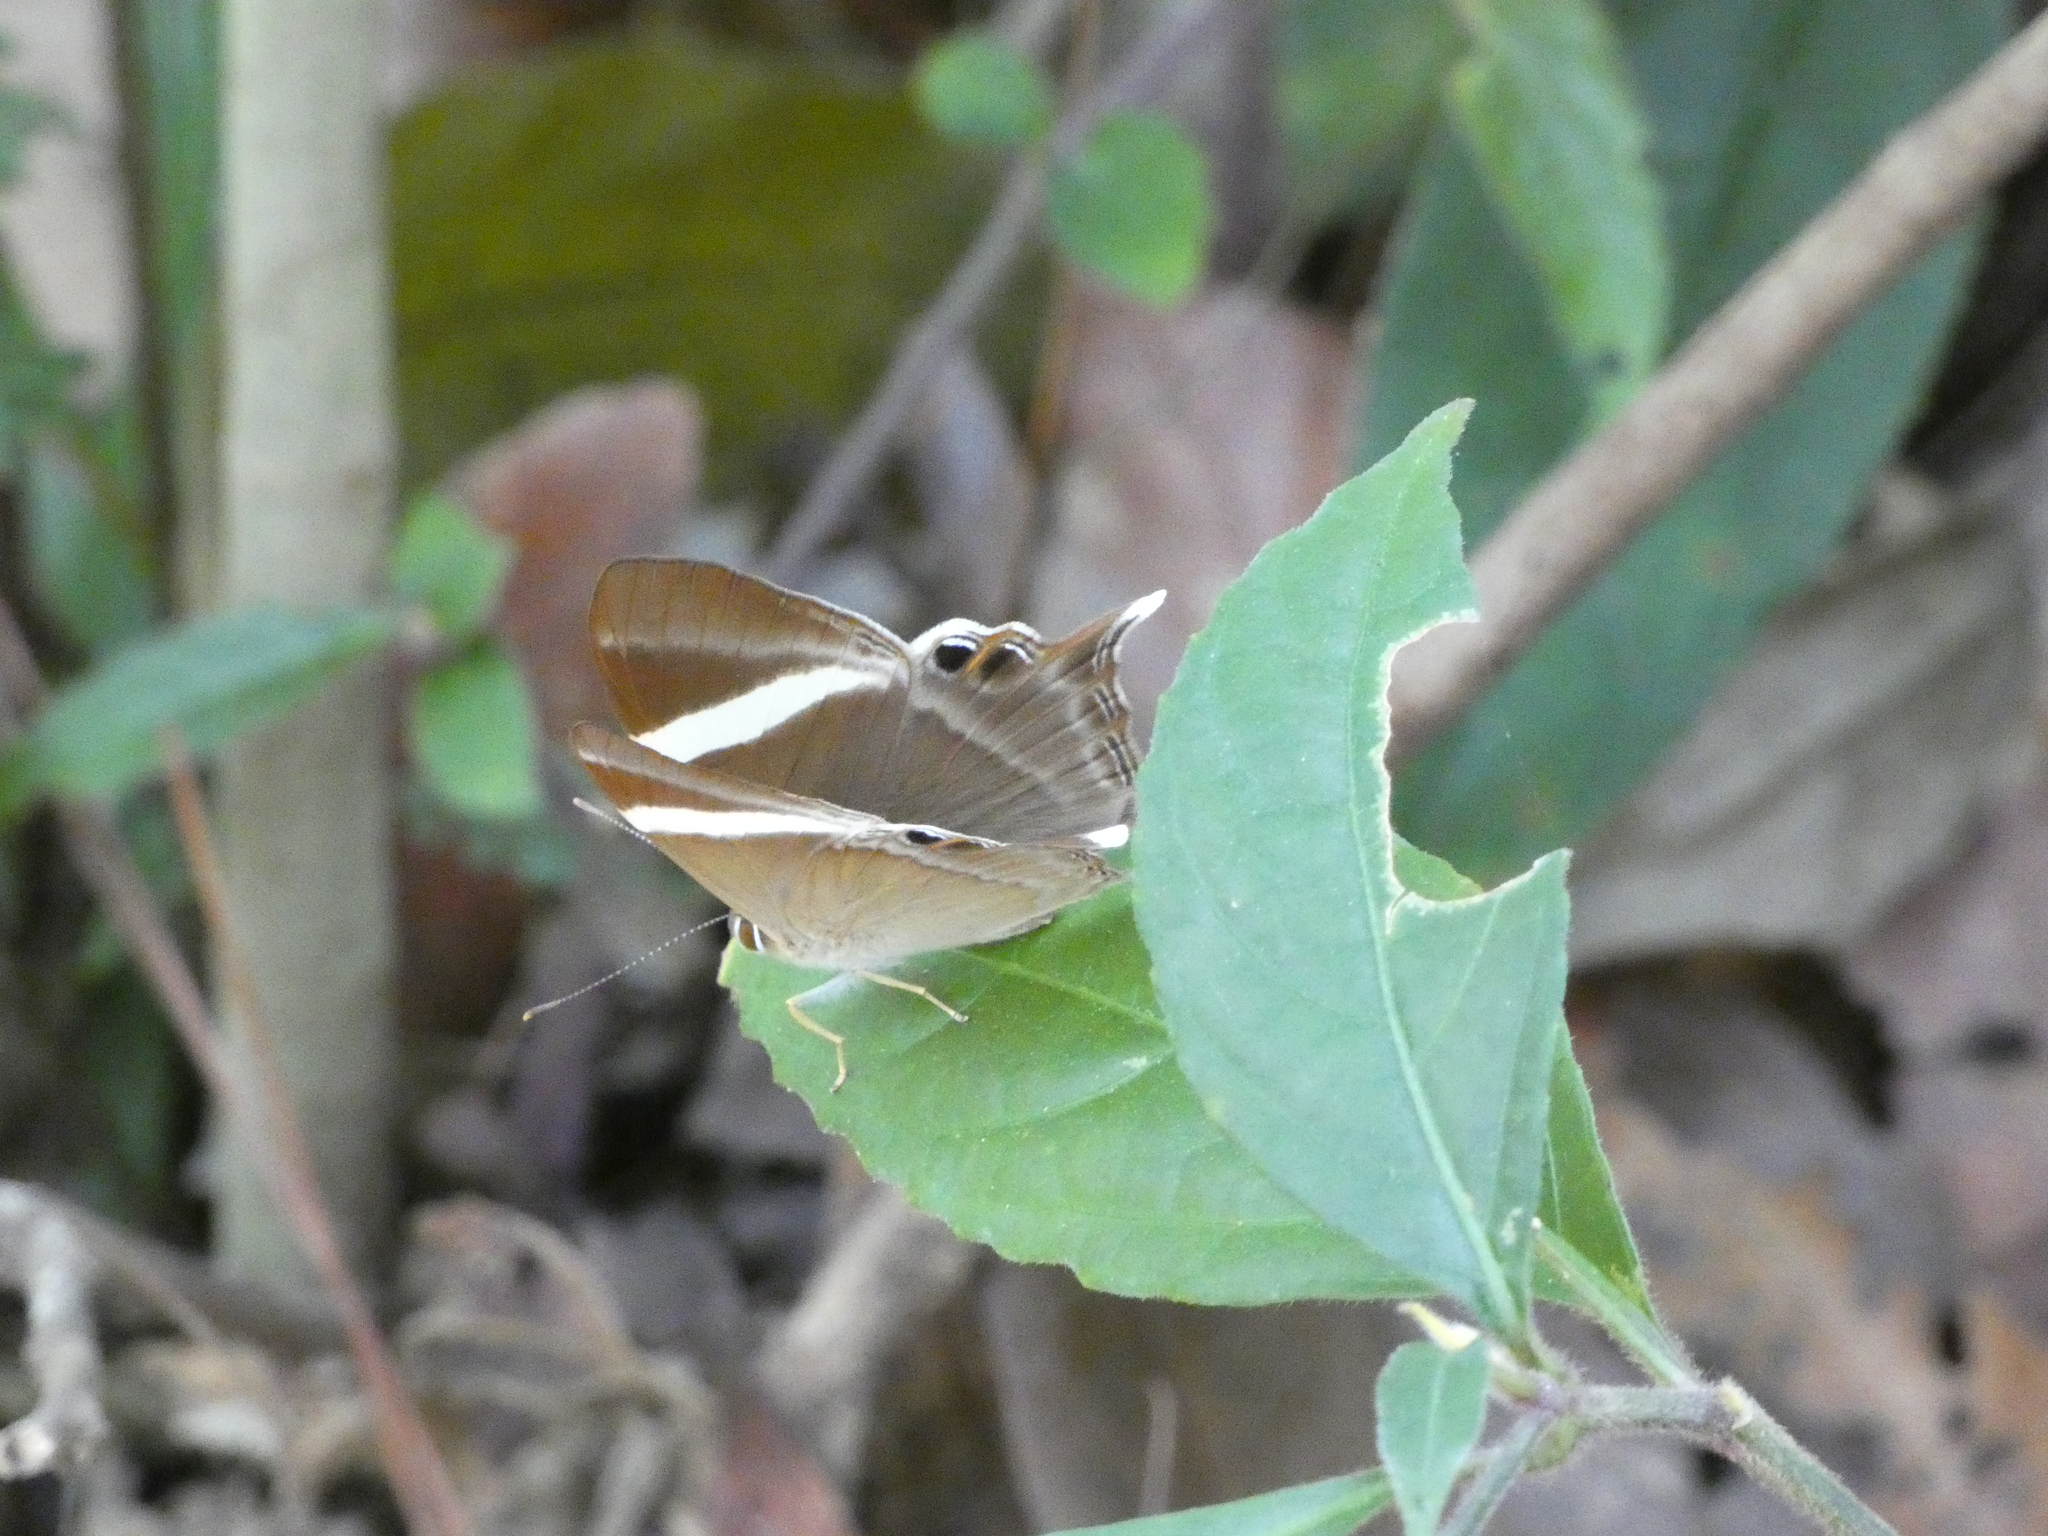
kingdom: Animalia
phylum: Arthropoda
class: Insecta
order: Lepidoptera
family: Lycaenidae
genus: Abisara
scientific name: Abisara neophron
